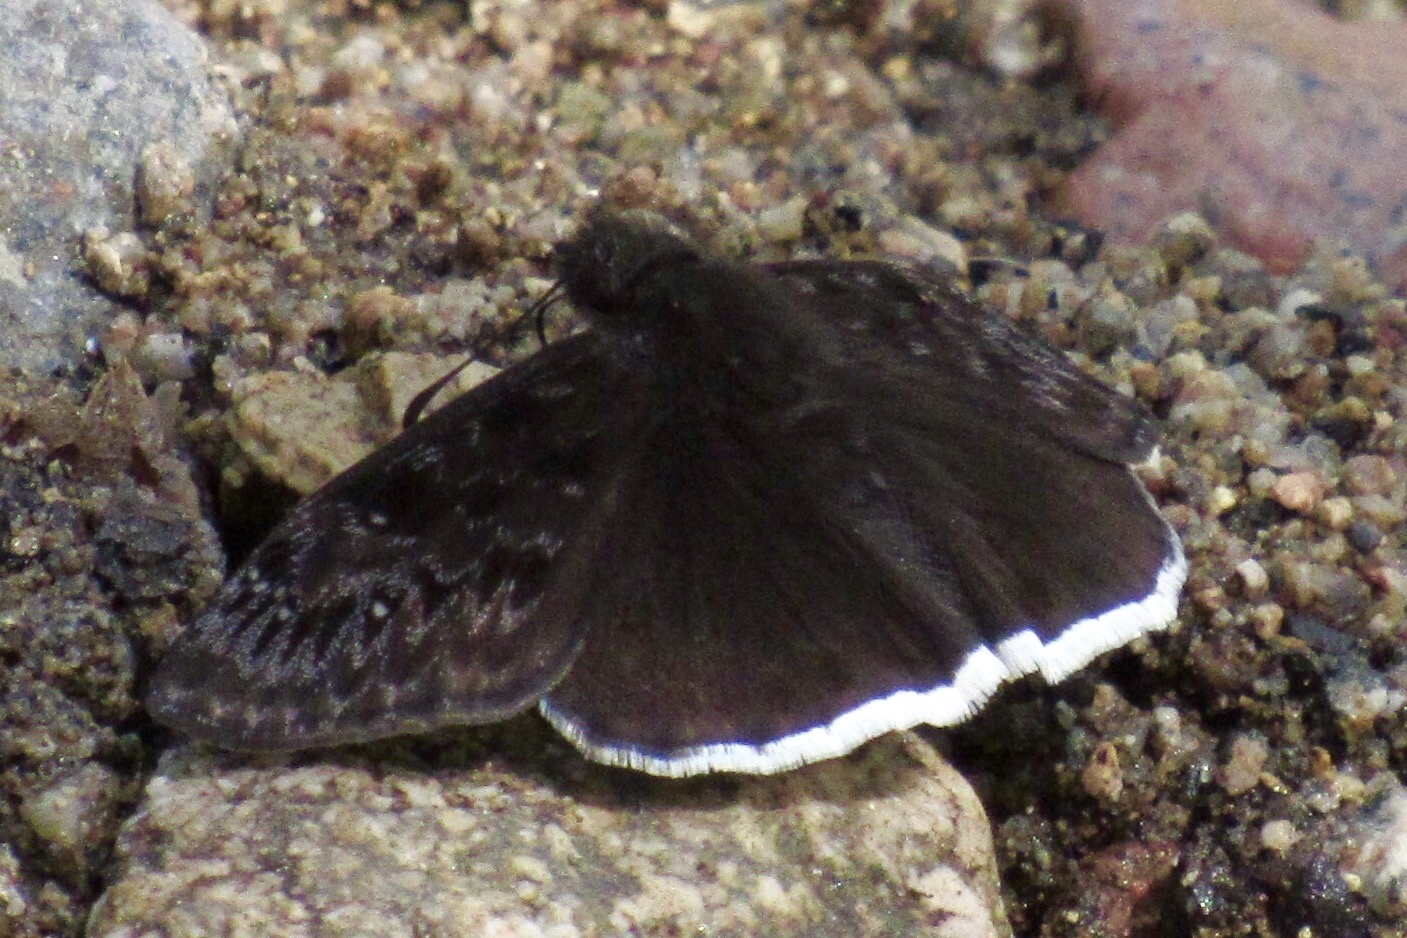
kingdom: Animalia
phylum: Arthropoda
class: Insecta
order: Lepidoptera
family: Hesperiidae
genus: Erynnis
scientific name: Erynnis tristis
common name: Mournful duskywing
